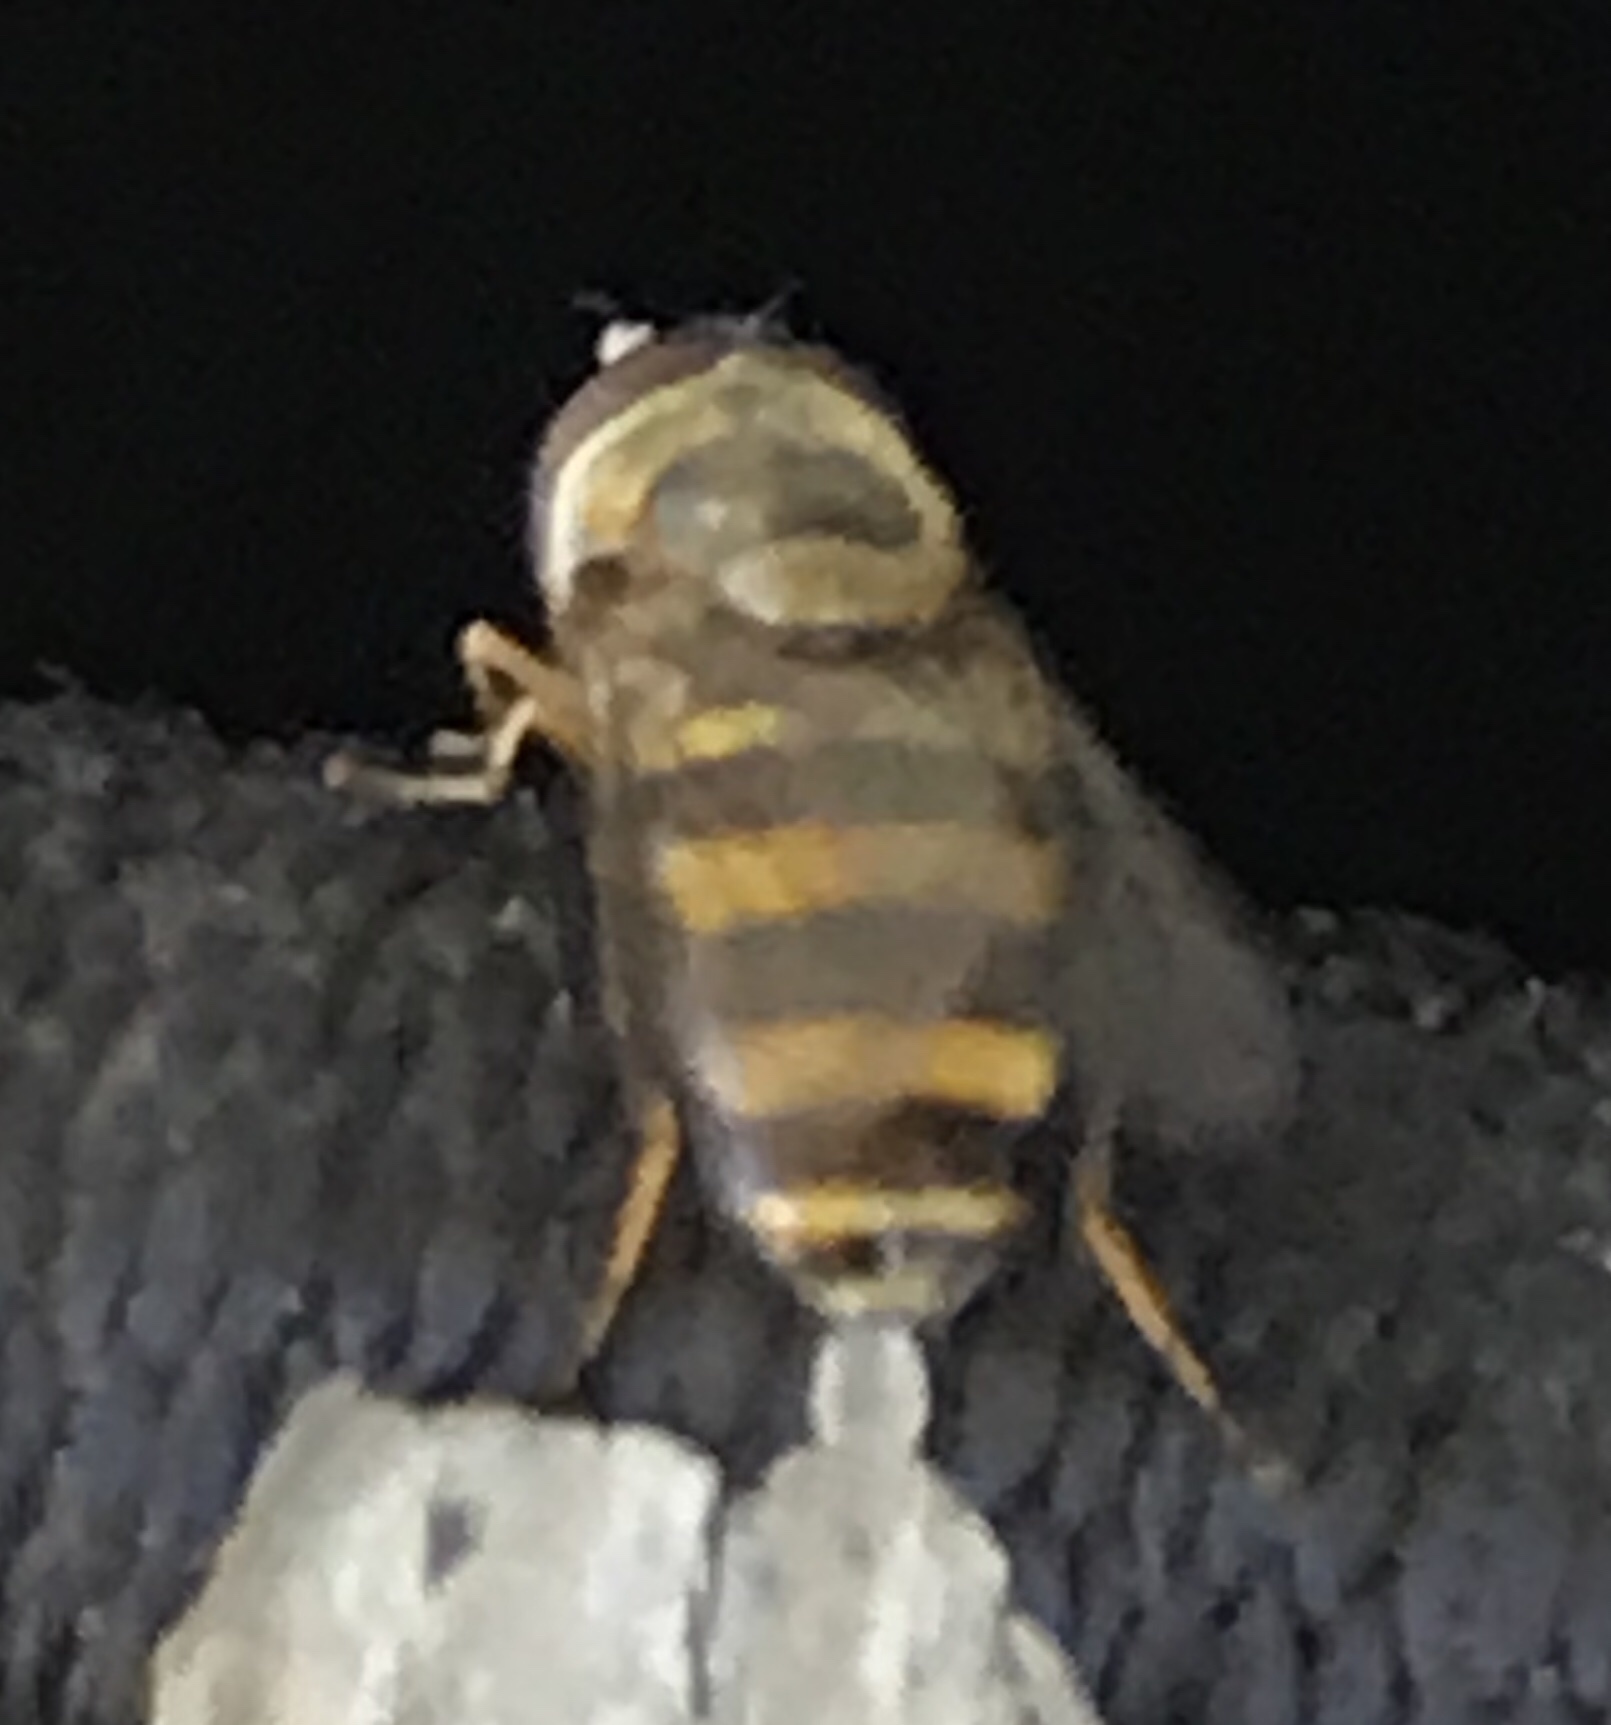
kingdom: Animalia
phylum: Arthropoda
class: Insecta
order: Diptera
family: Syrphidae
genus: Eupeodes
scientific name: Eupeodes
